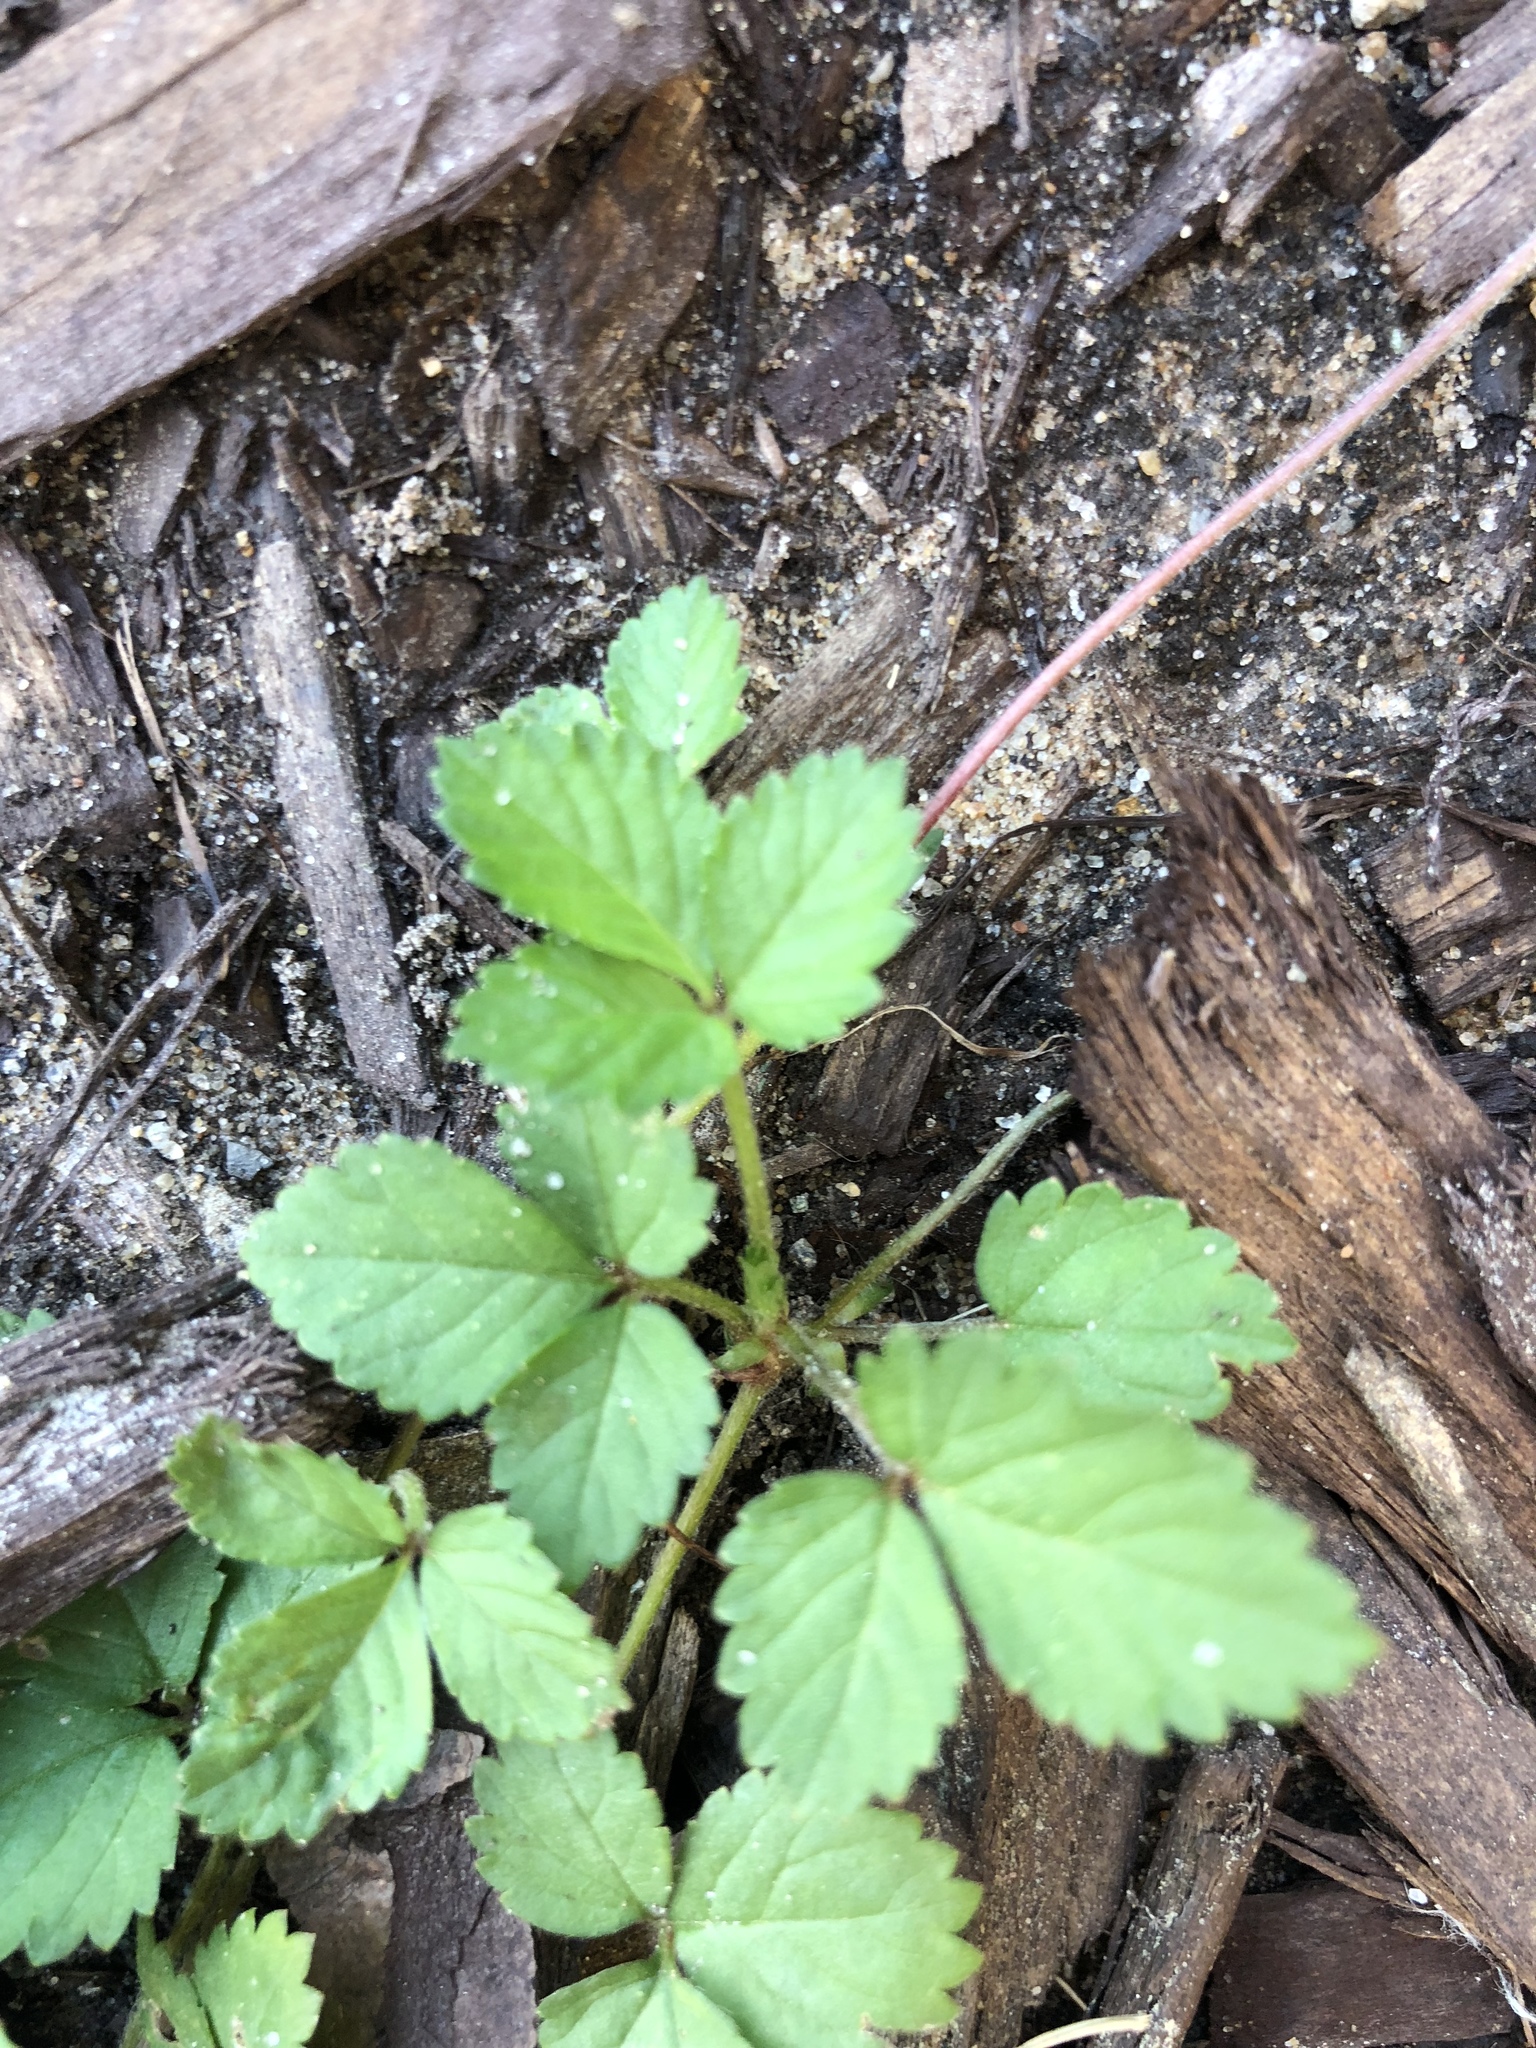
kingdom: Plantae
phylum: Tracheophyta
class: Magnoliopsida
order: Rosales
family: Rosaceae
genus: Potentilla
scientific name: Potentilla indica
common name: Yellow-flowered strawberry
